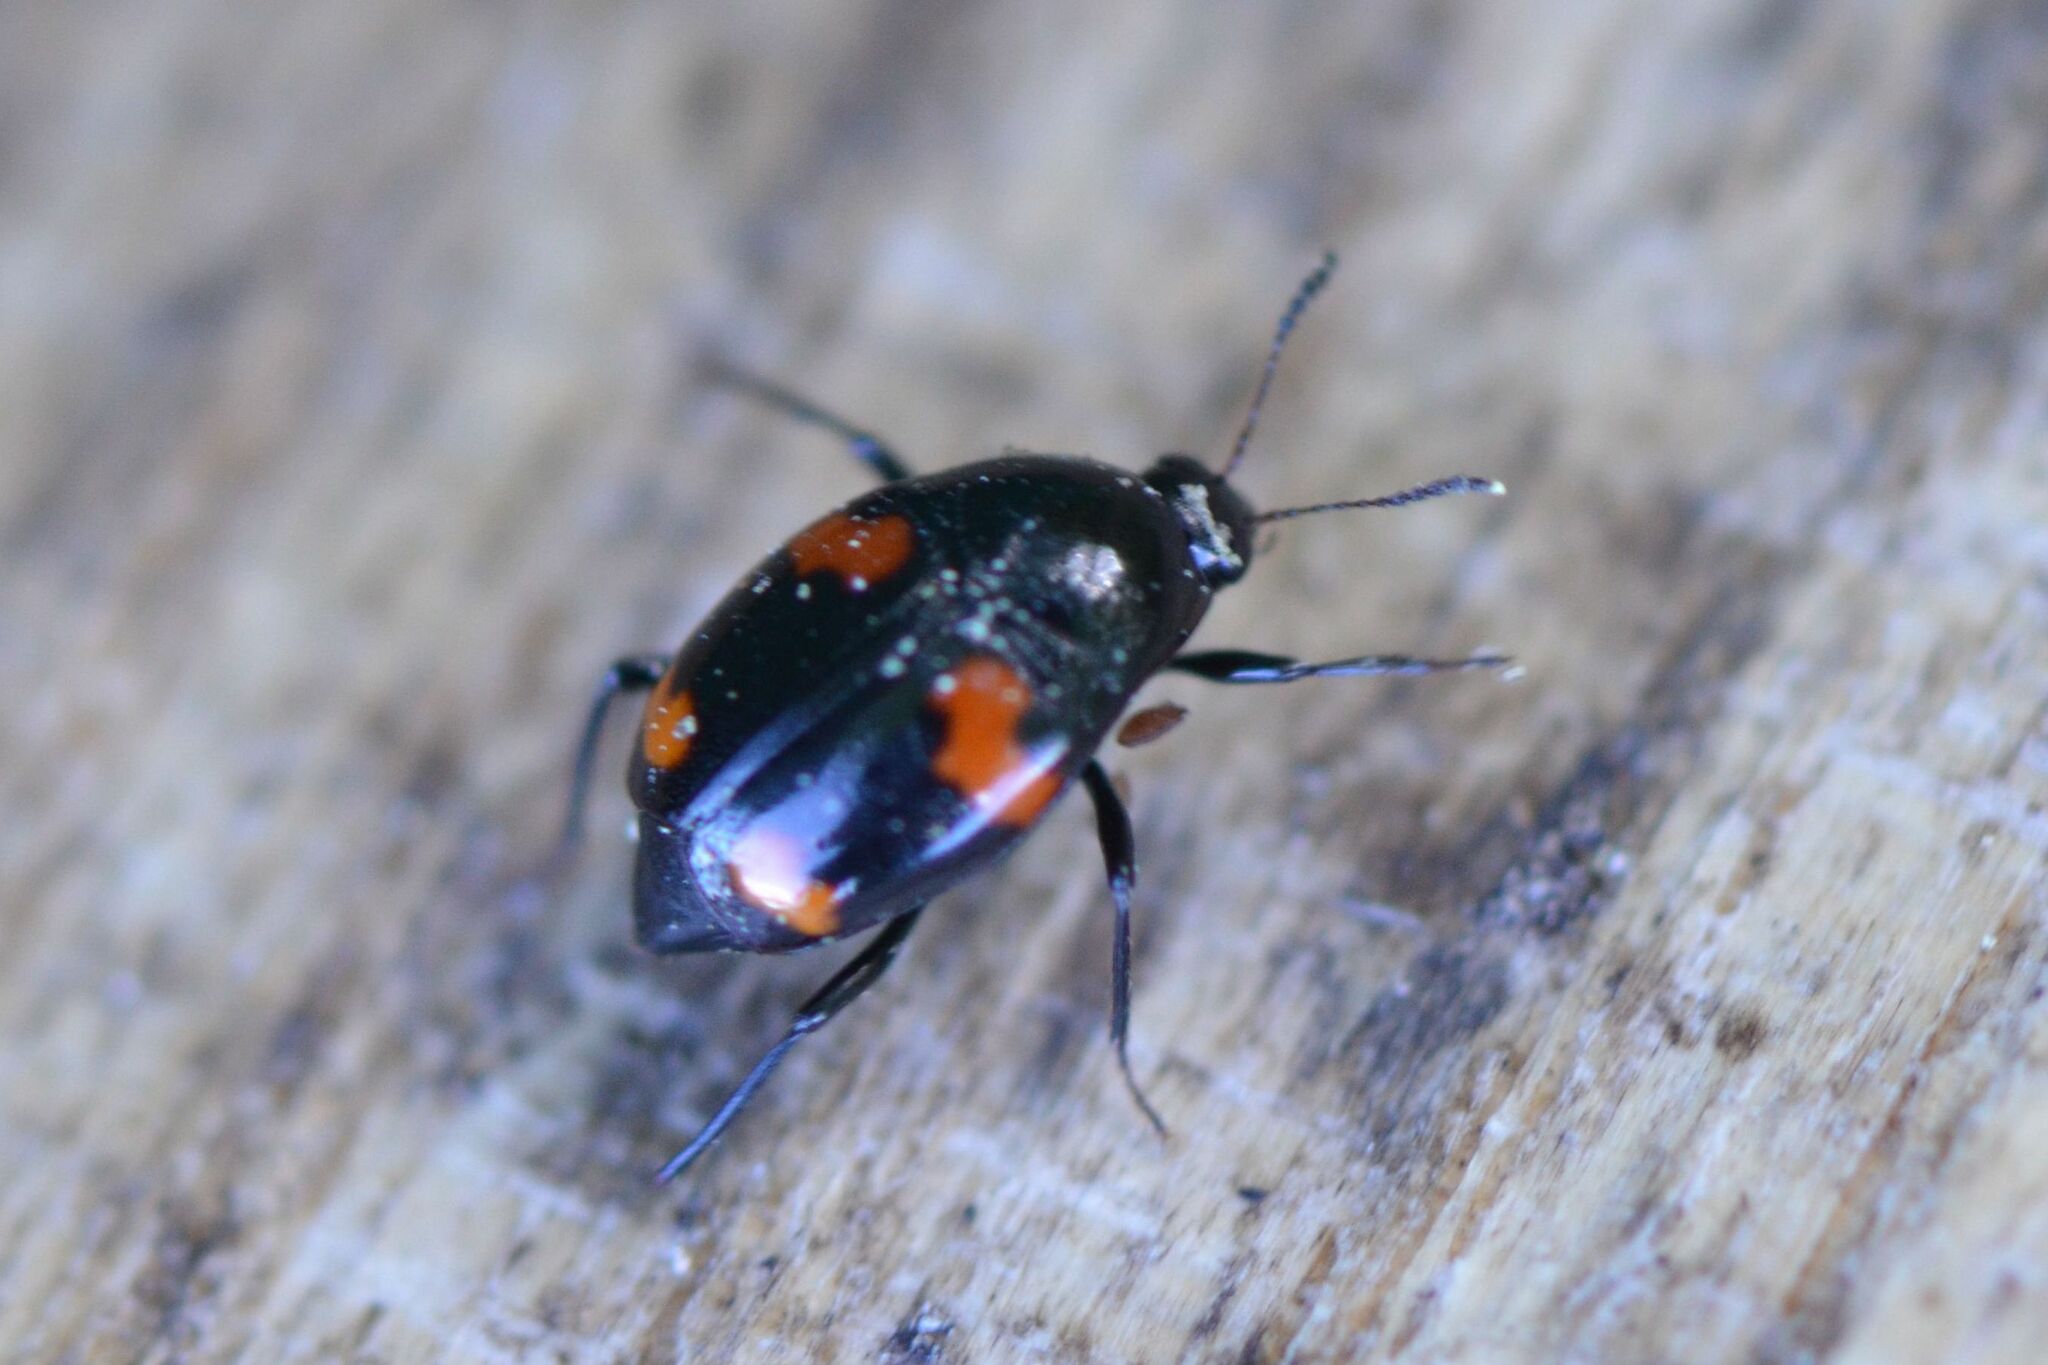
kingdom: Animalia
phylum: Arthropoda
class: Insecta
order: Coleoptera
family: Staphylinidae
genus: Scaphidium
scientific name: Scaphidium quadrimaculatum
